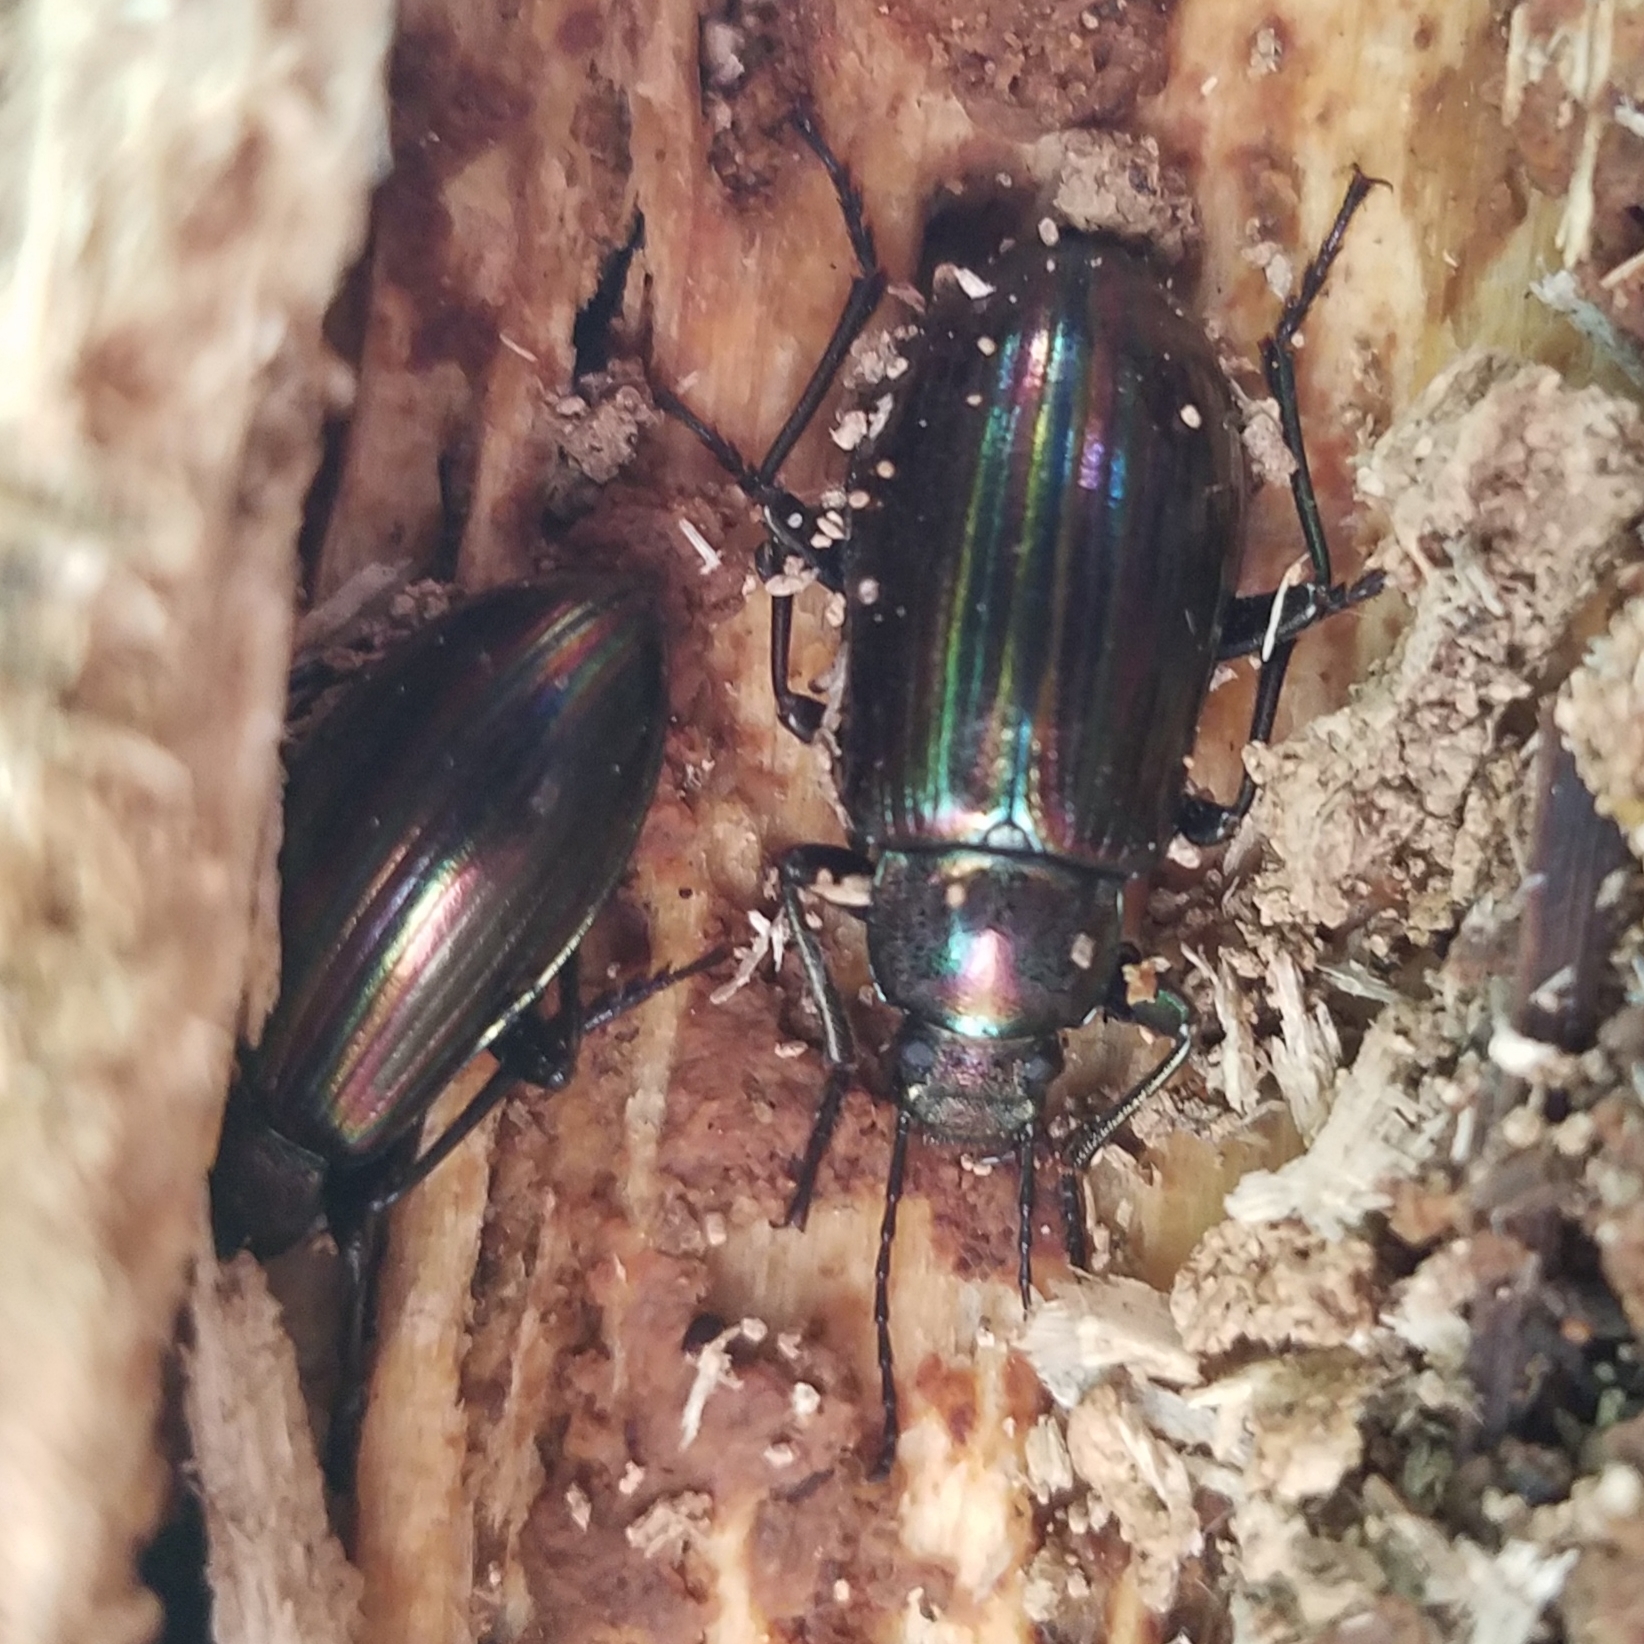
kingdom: Animalia
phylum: Arthropoda
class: Insecta
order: Coleoptera
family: Tenebrionidae
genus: Tarpela
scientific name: Tarpela micans
